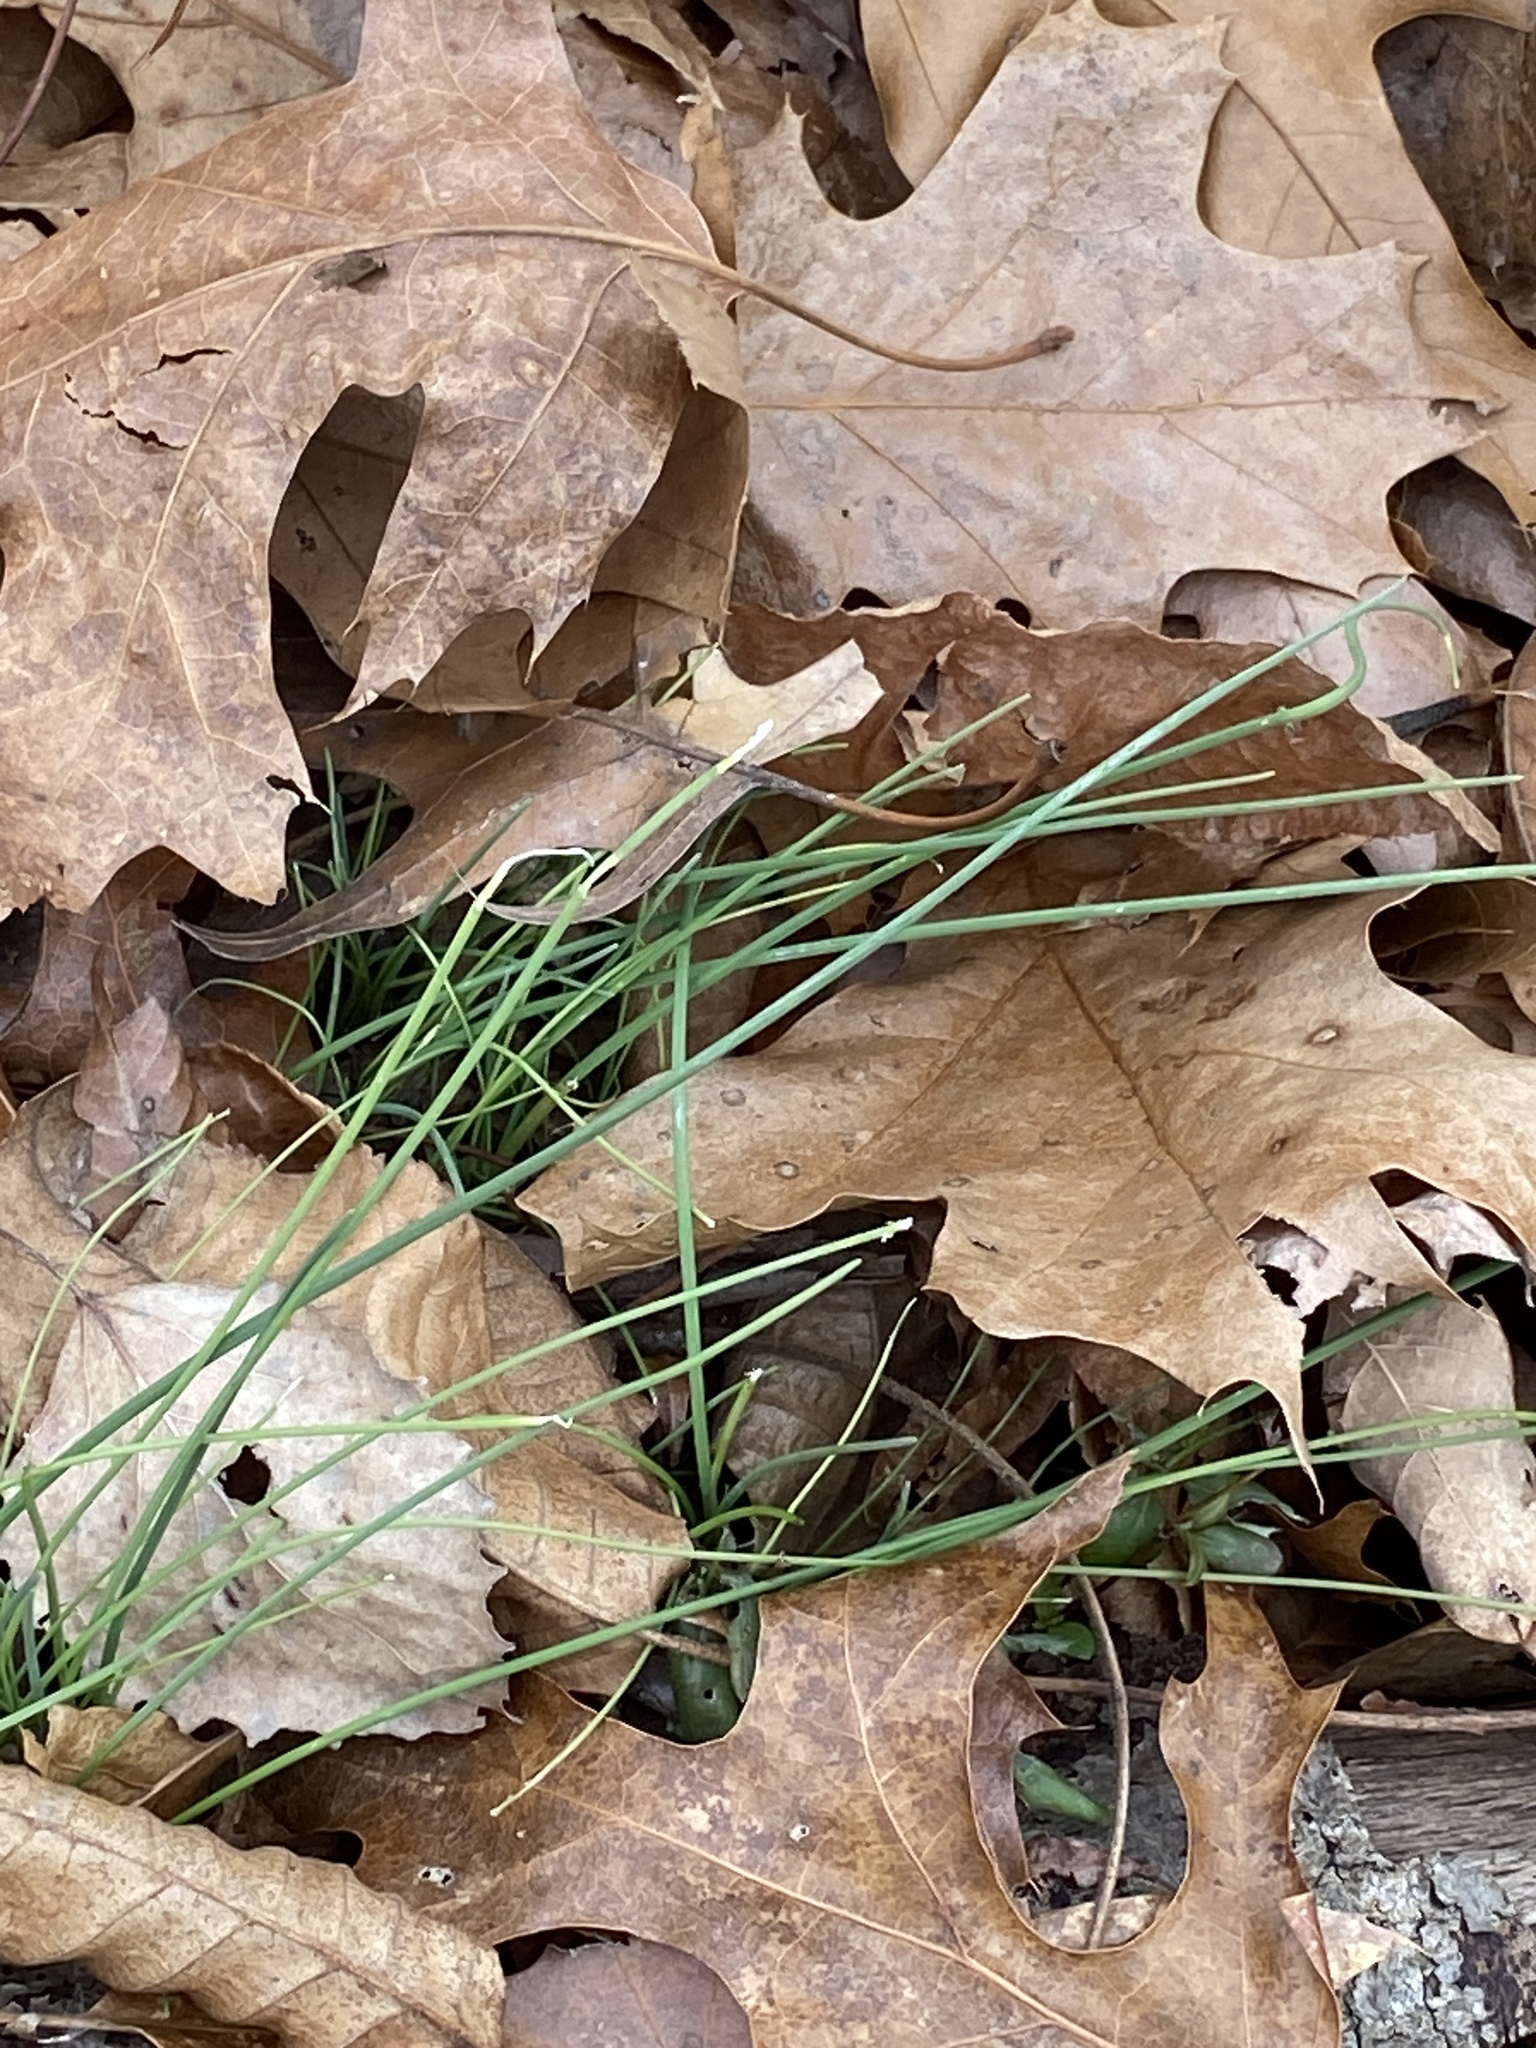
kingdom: Plantae
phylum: Tracheophyta
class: Liliopsida
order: Asparagales
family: Amaryllidaceae
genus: Allium
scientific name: Allium vineale
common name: Crow garlic
